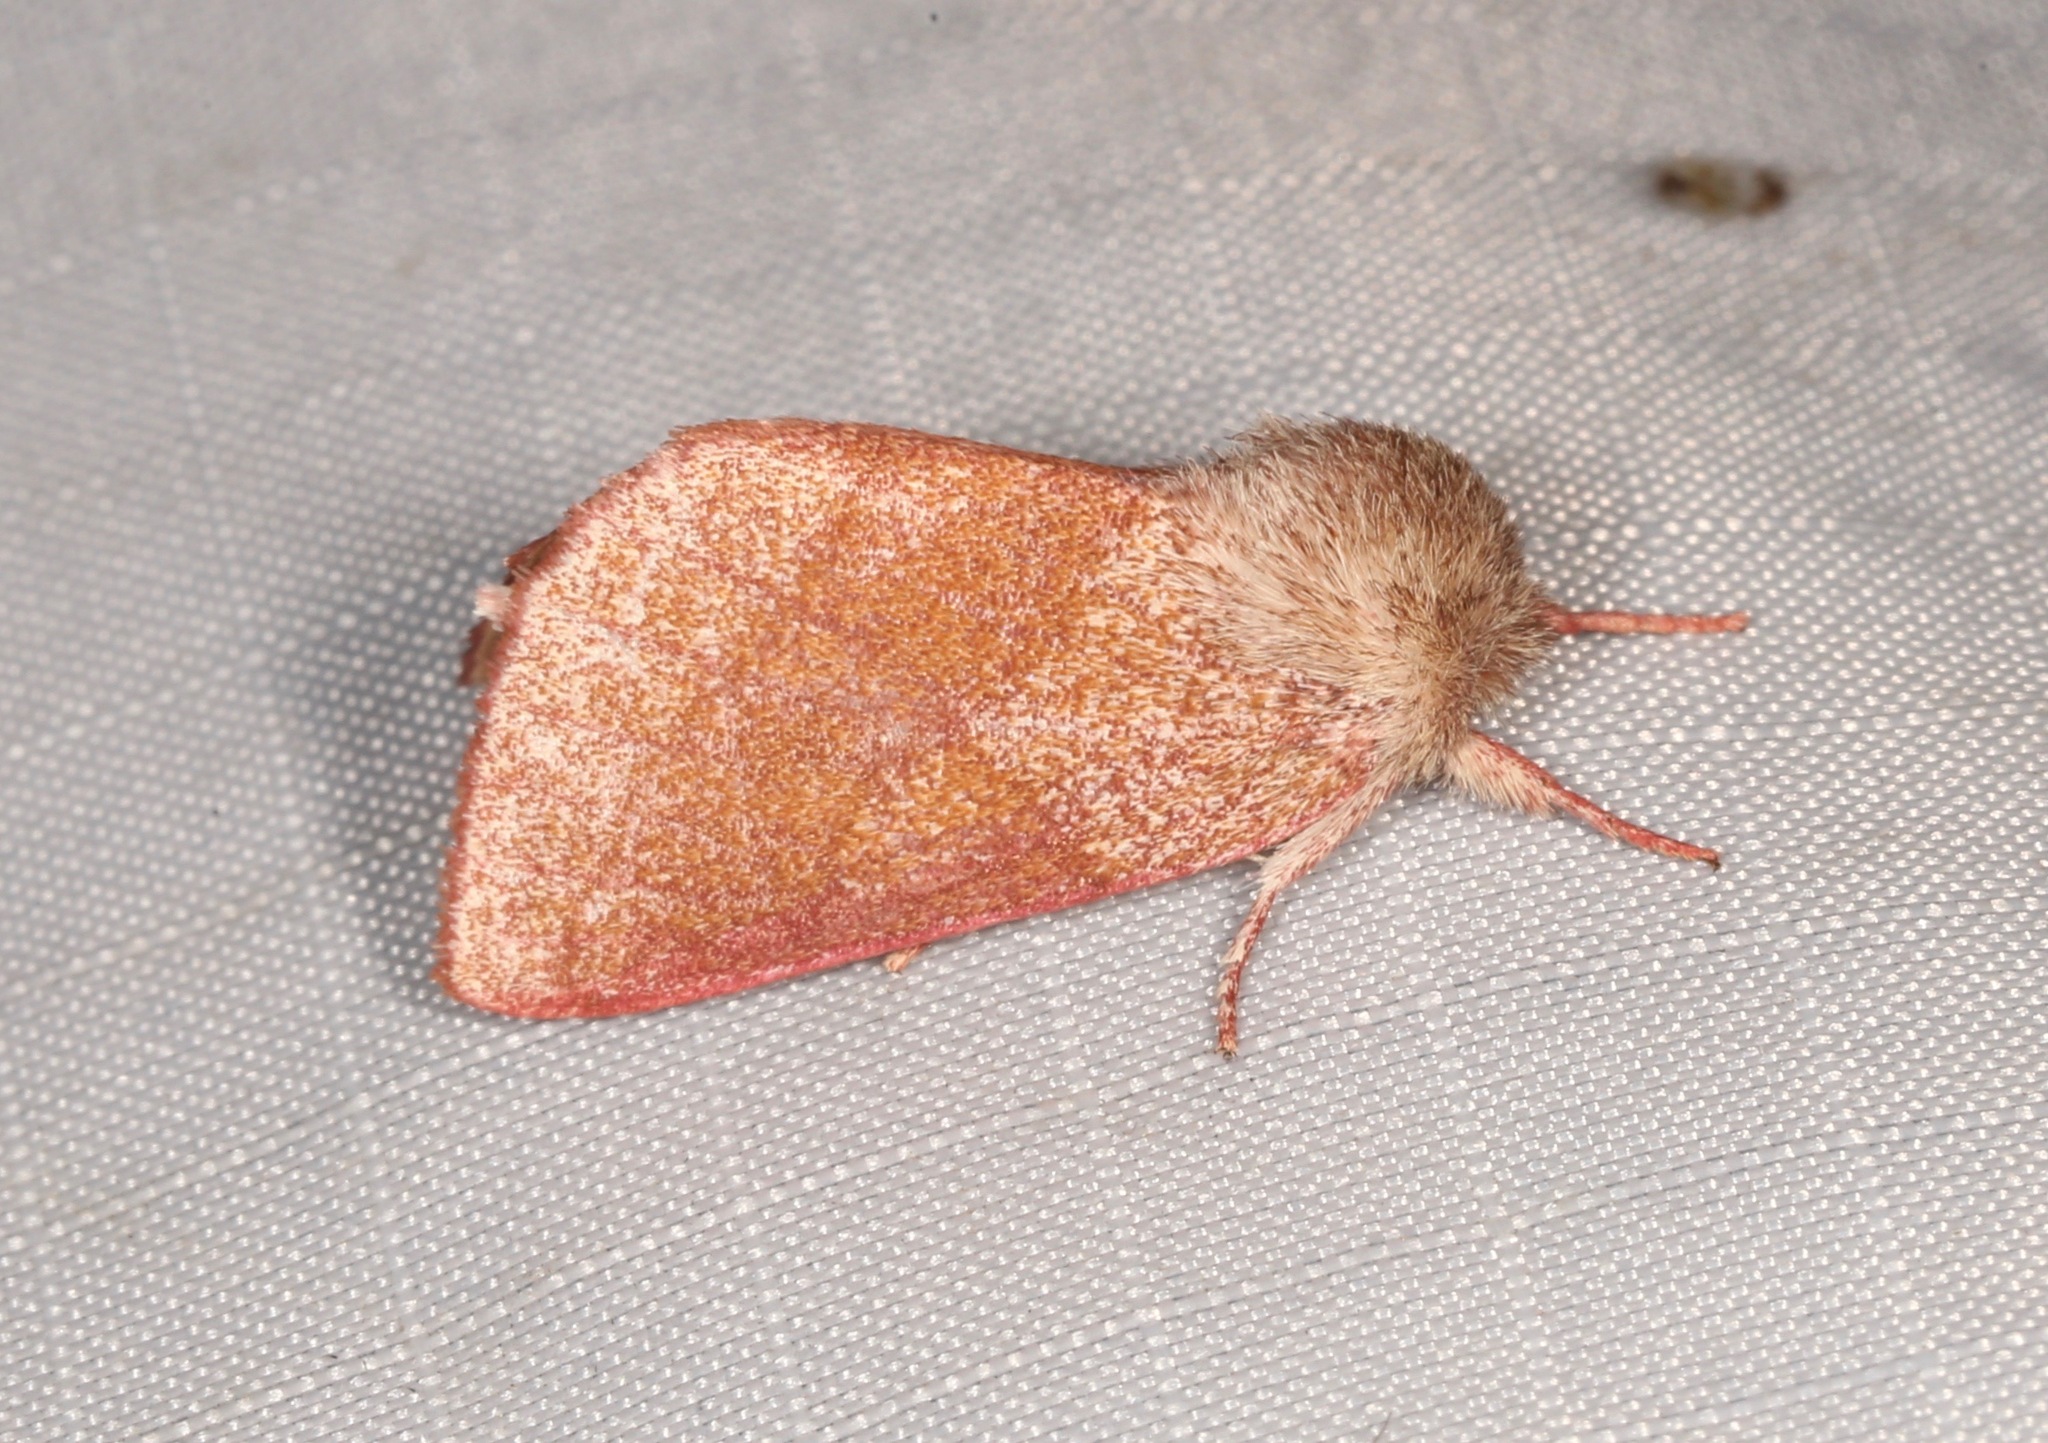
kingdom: Animalia
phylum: Arthropoda
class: Insecta
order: Lepidoptera
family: Notodontidae
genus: Hyparpax
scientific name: Hyparpax perophoroides
